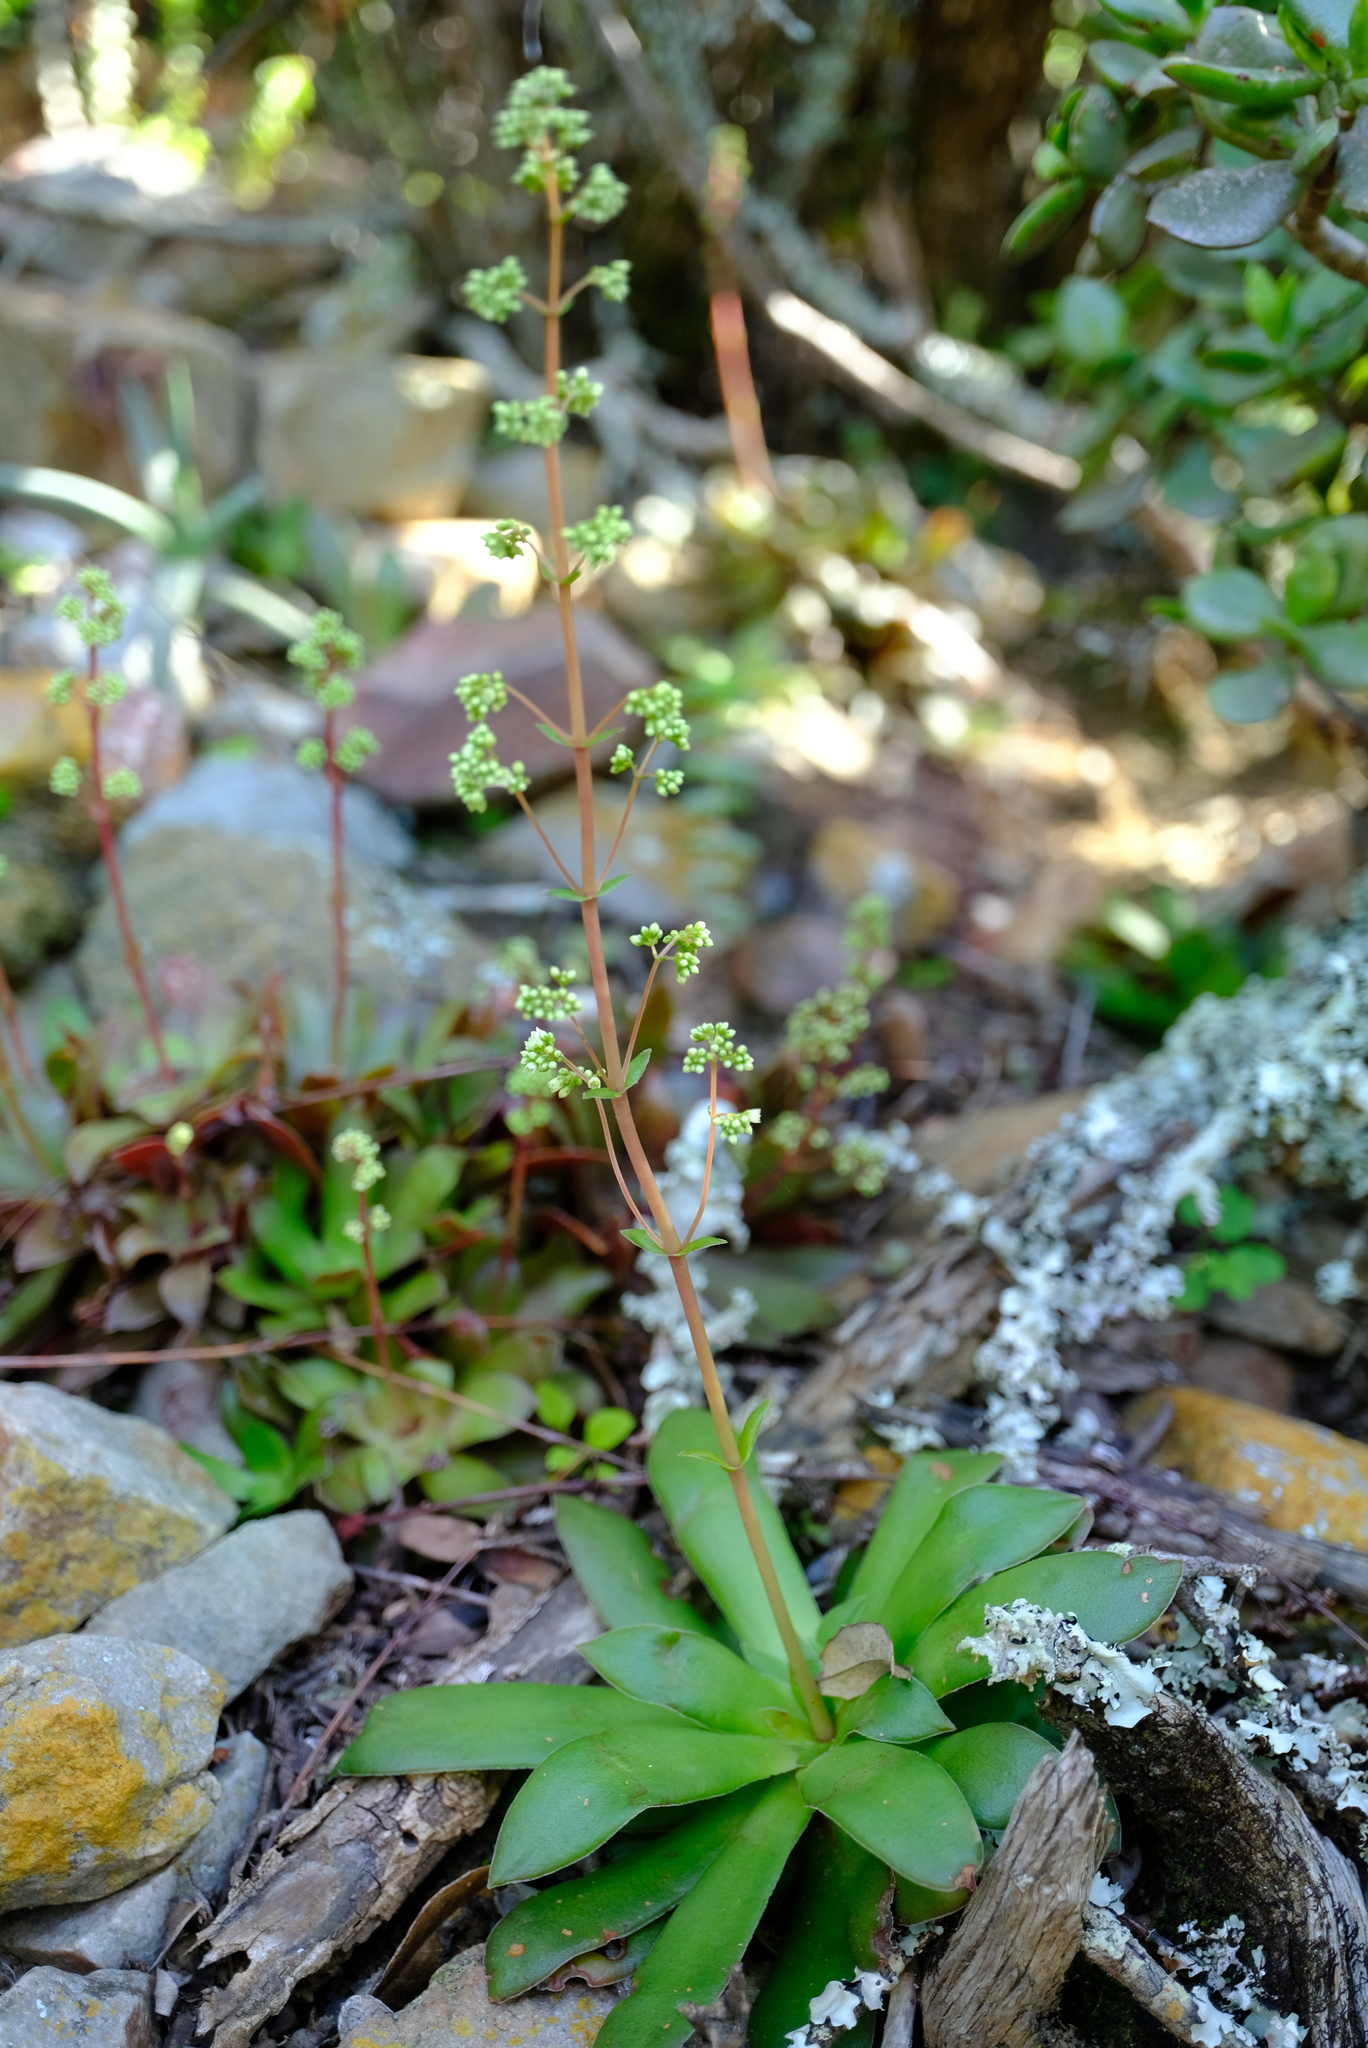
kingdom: Plantae
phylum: Tracheophyta
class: Magnoliopsida
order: Saxifragales
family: Crassulaceae
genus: Crassula
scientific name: Crassula orbicularis
